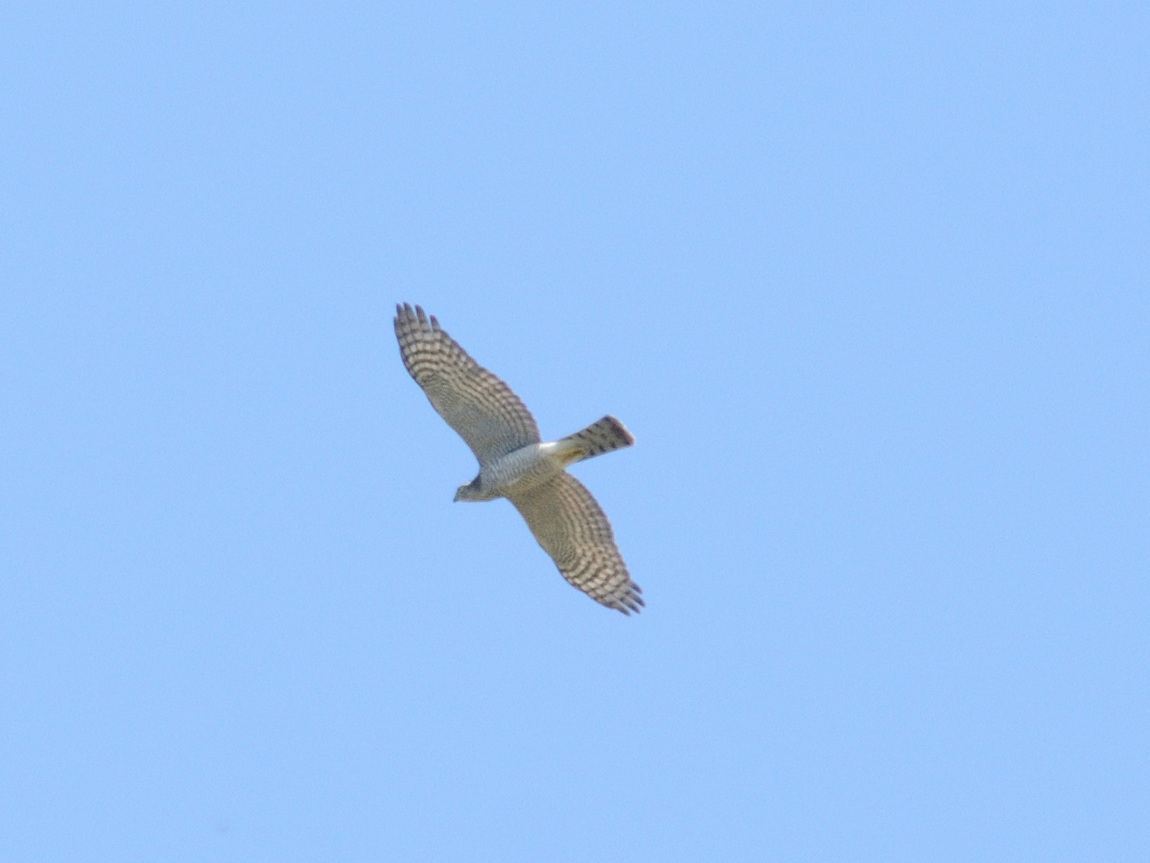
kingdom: Animalia
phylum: Chordata
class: Aves
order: Accipitriformes
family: Accipitridae
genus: Accipiter
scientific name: Accipiter nisus
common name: Eurasian sparrowhawk
